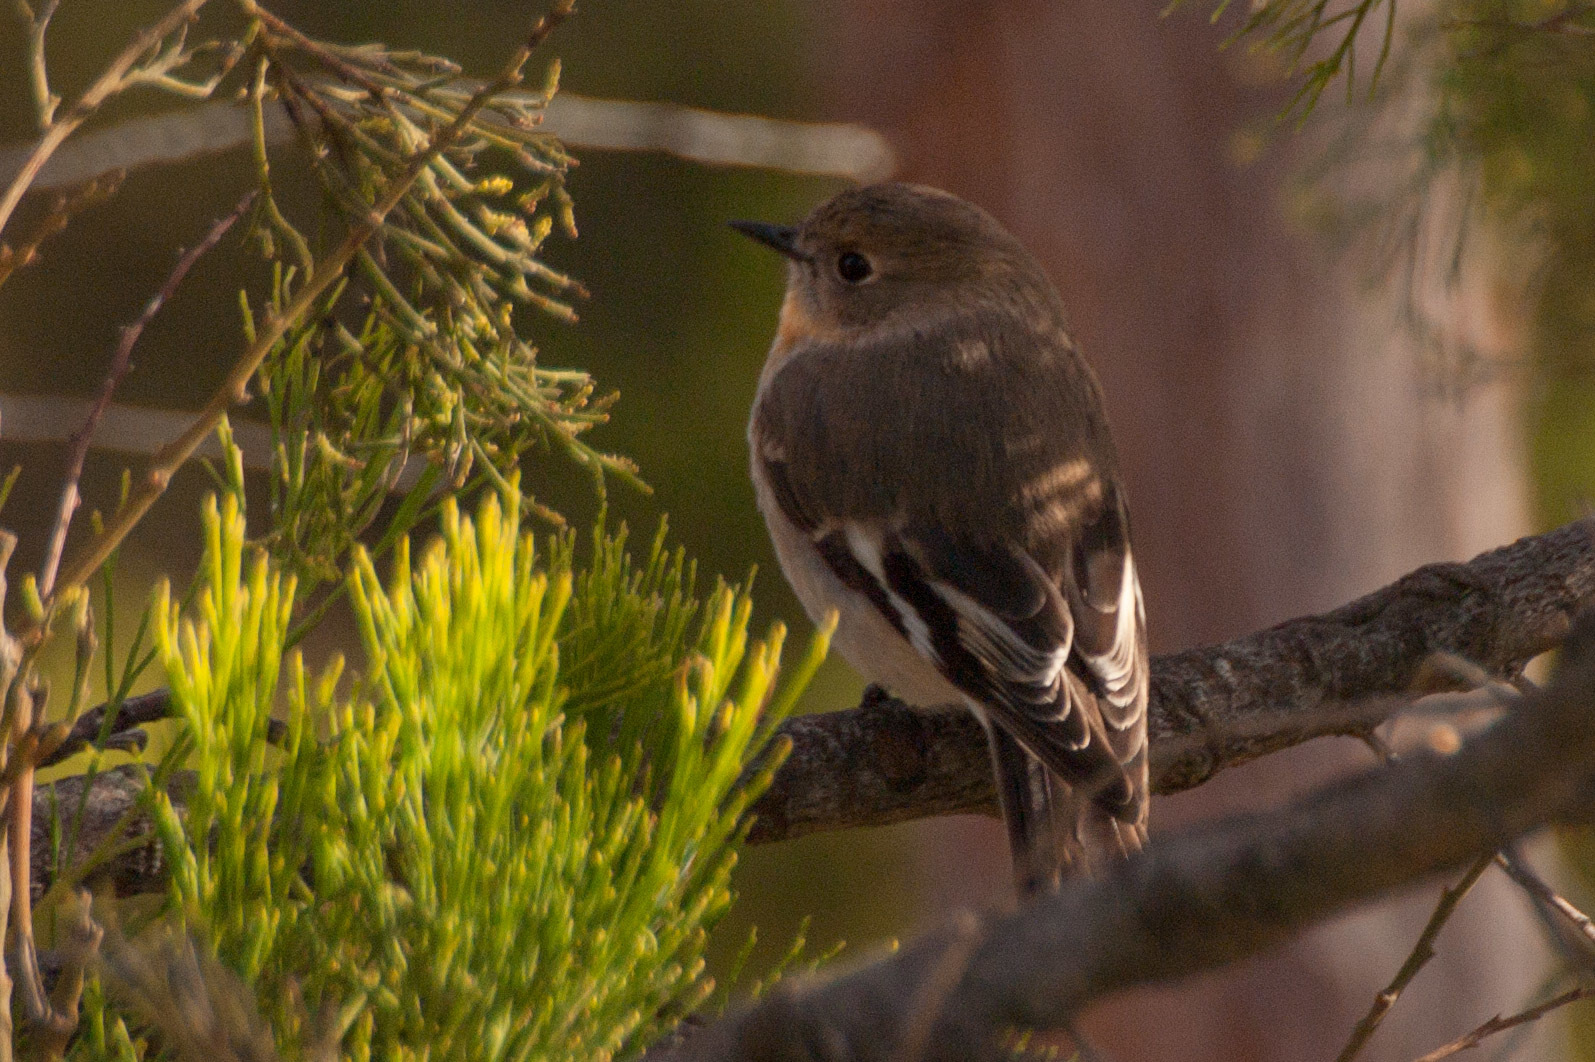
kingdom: Animalia
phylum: Chordata
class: Aves
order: Passeriformes
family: Petroicidae
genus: Petroica
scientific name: Petroica boodang
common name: Scarlet robin
